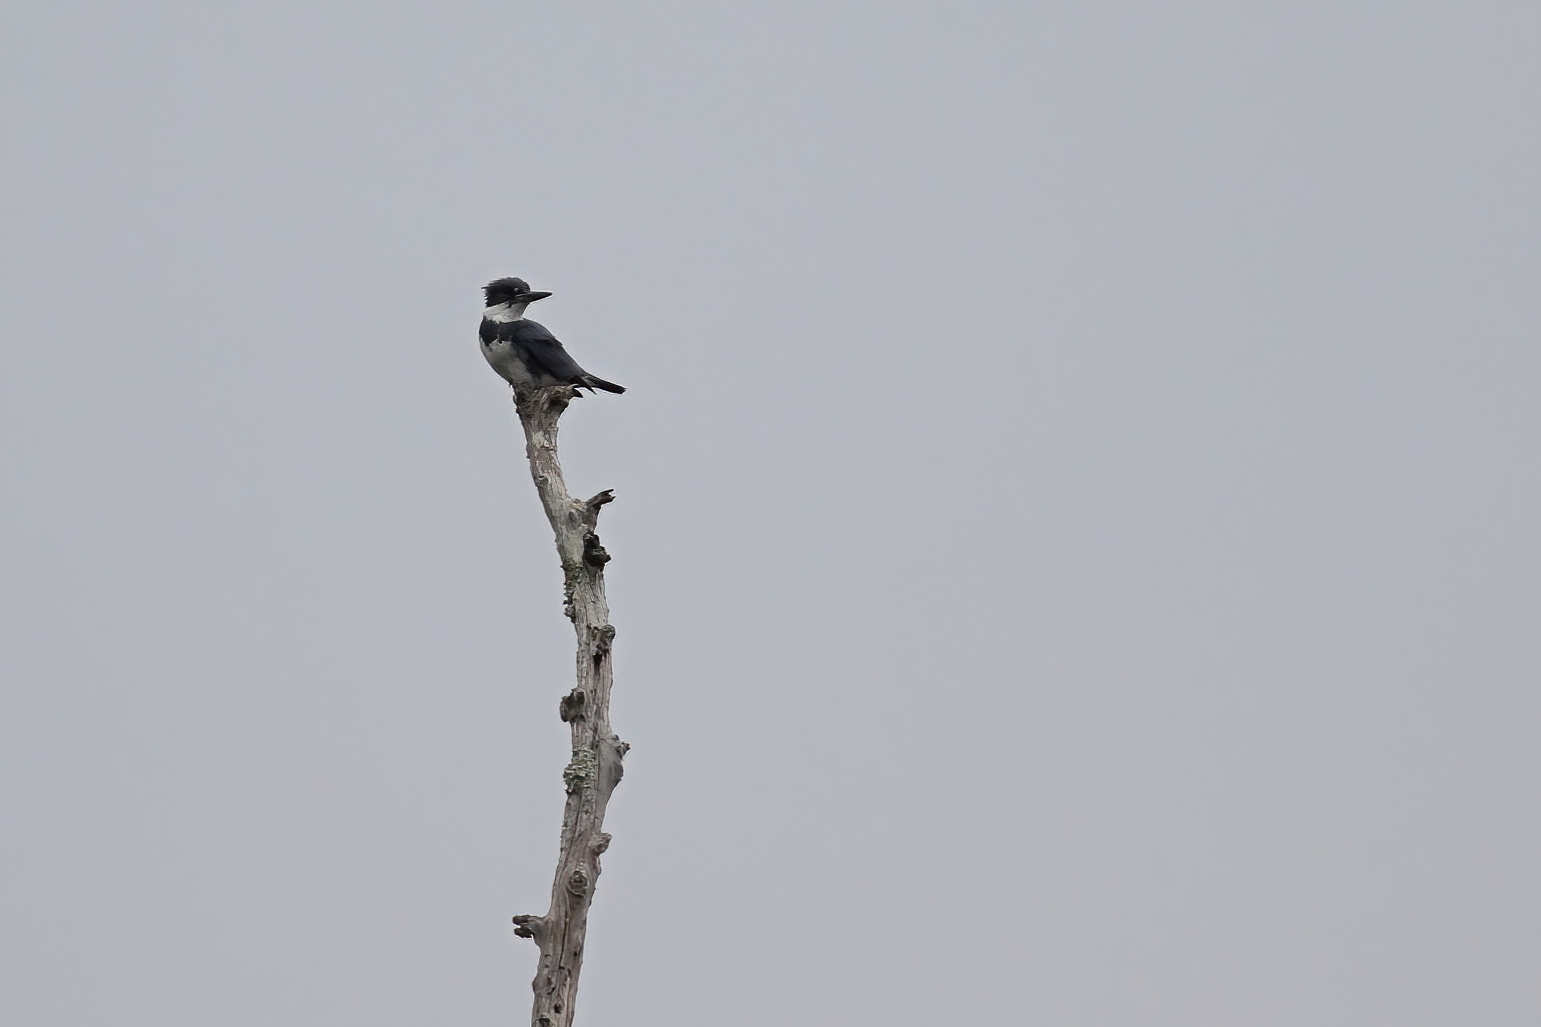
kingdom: Animalia
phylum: Chordata
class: Aves
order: Coraciiformes
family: Alcedinidae
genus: Megaceryle
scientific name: Megaceryle alcyon
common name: Belted kingfisher
